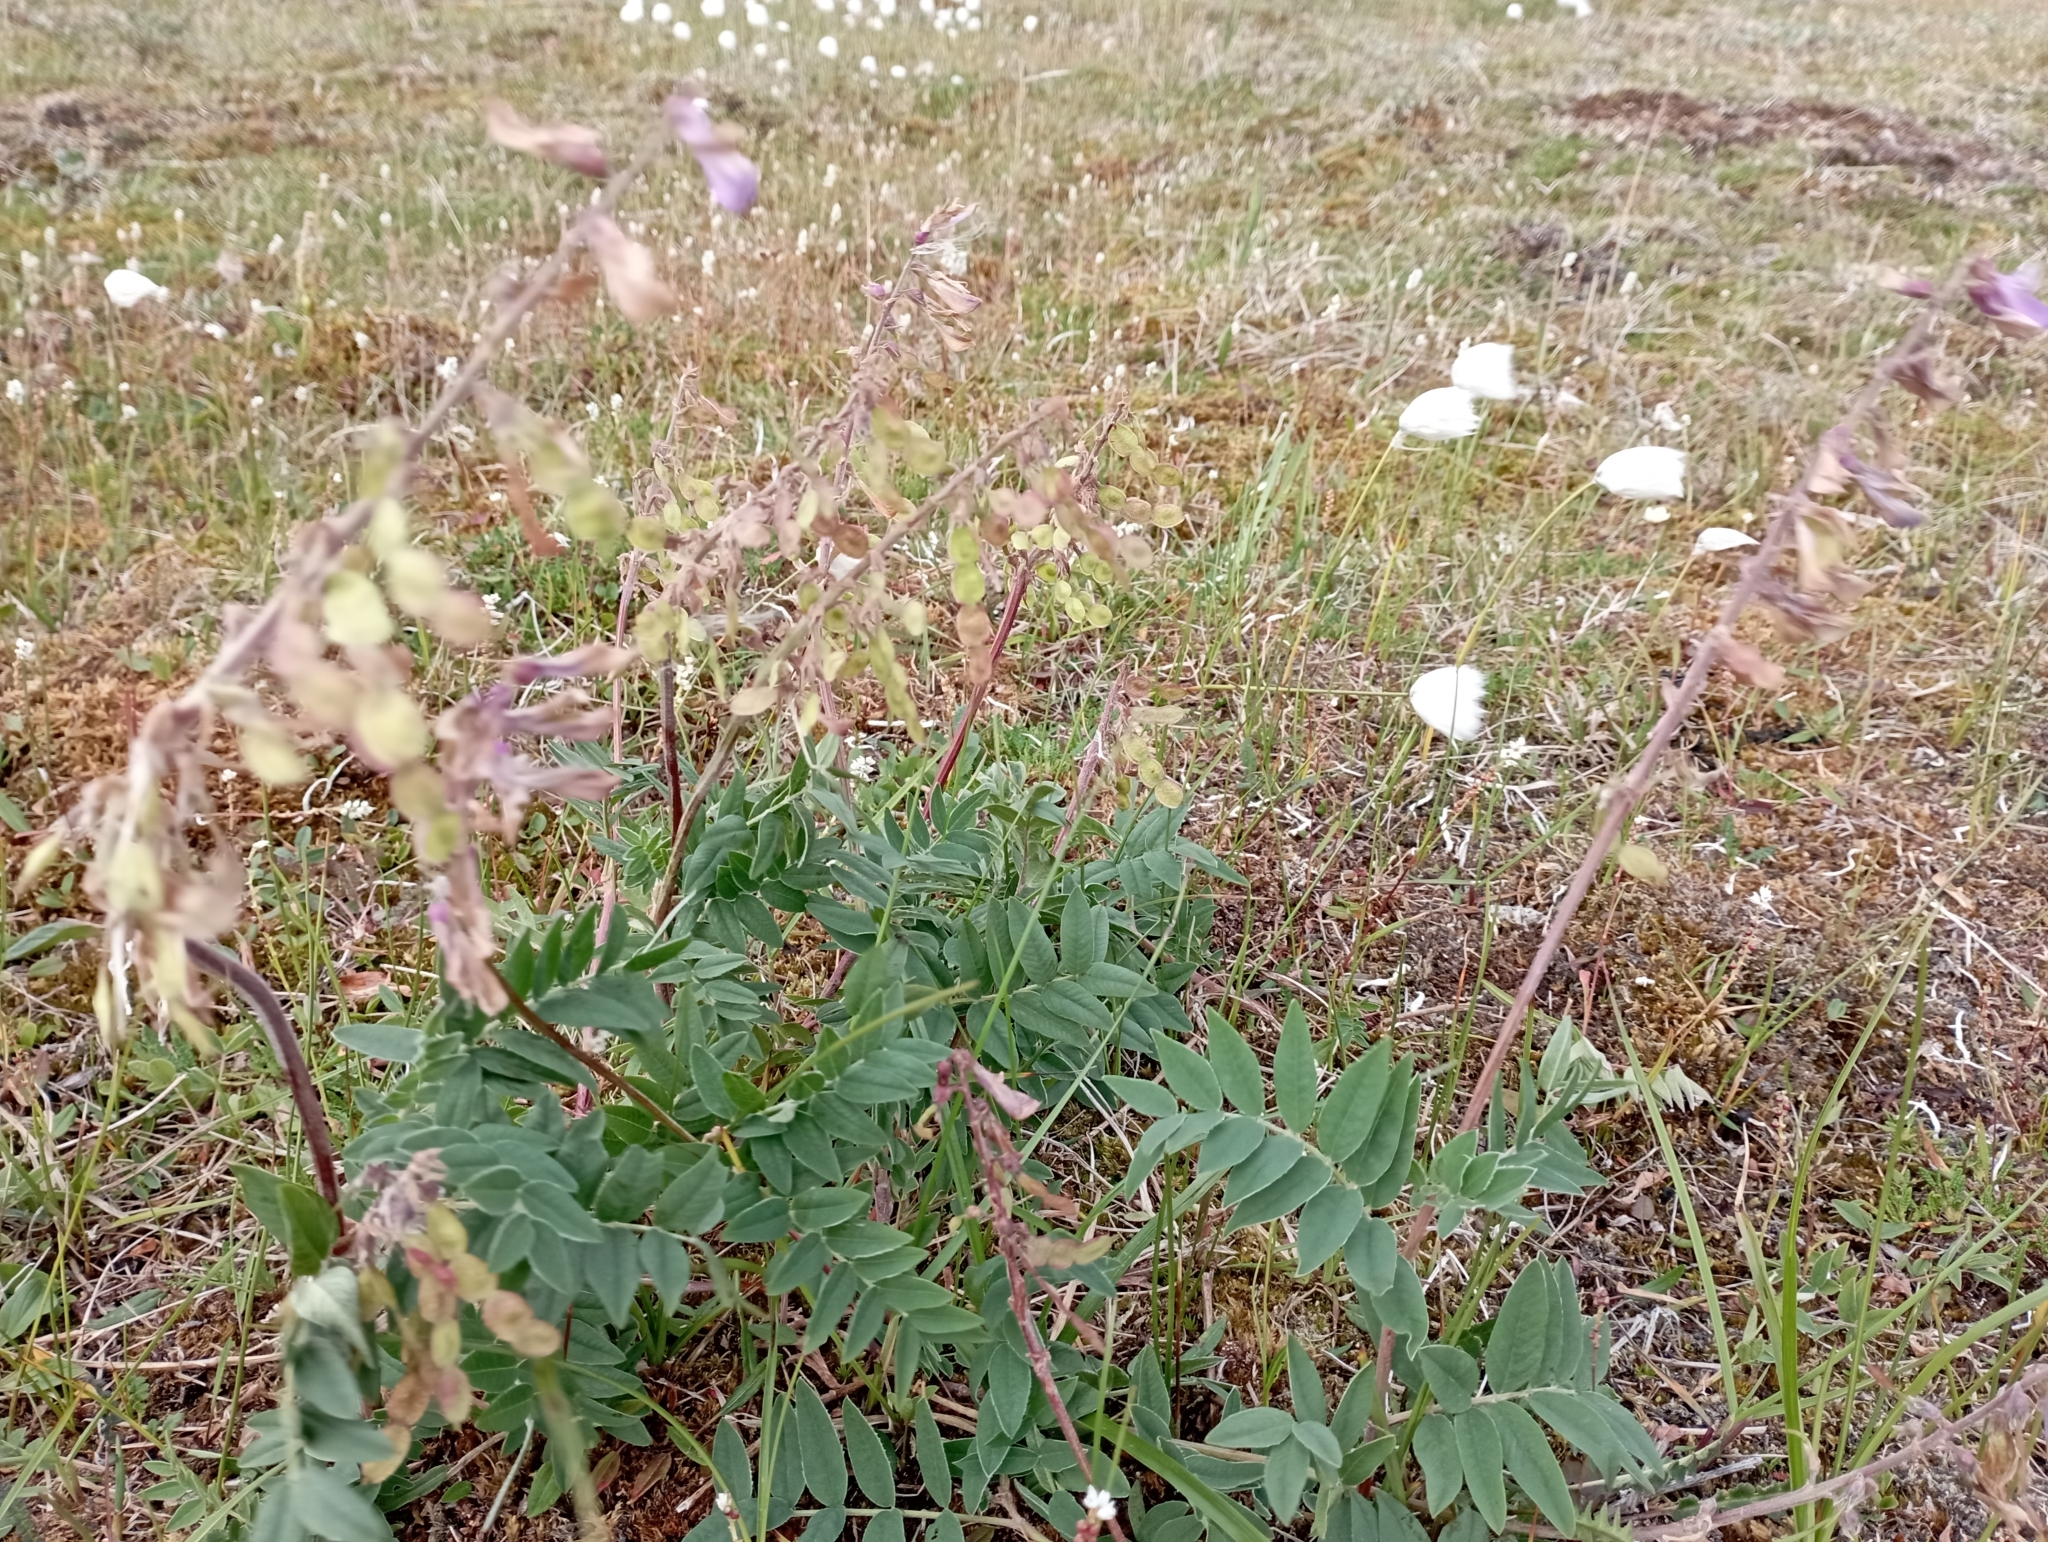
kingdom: Plantae
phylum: Tracheophyta
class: Magnoliopsida
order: Fabales
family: Fabaceae
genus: Hedysarum
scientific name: Hedysarum hedysaroides
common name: Alpine french-honeysuckle
